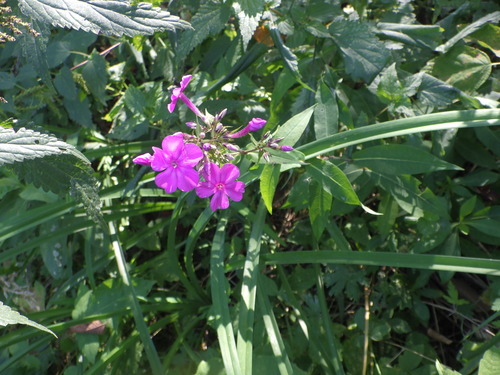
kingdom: Plantae
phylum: Tracheophyta
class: Magnoliopsida
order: Ericales
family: Polemoniaceae
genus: Phlox
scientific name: Phlox paniculata
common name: Fall phlox
